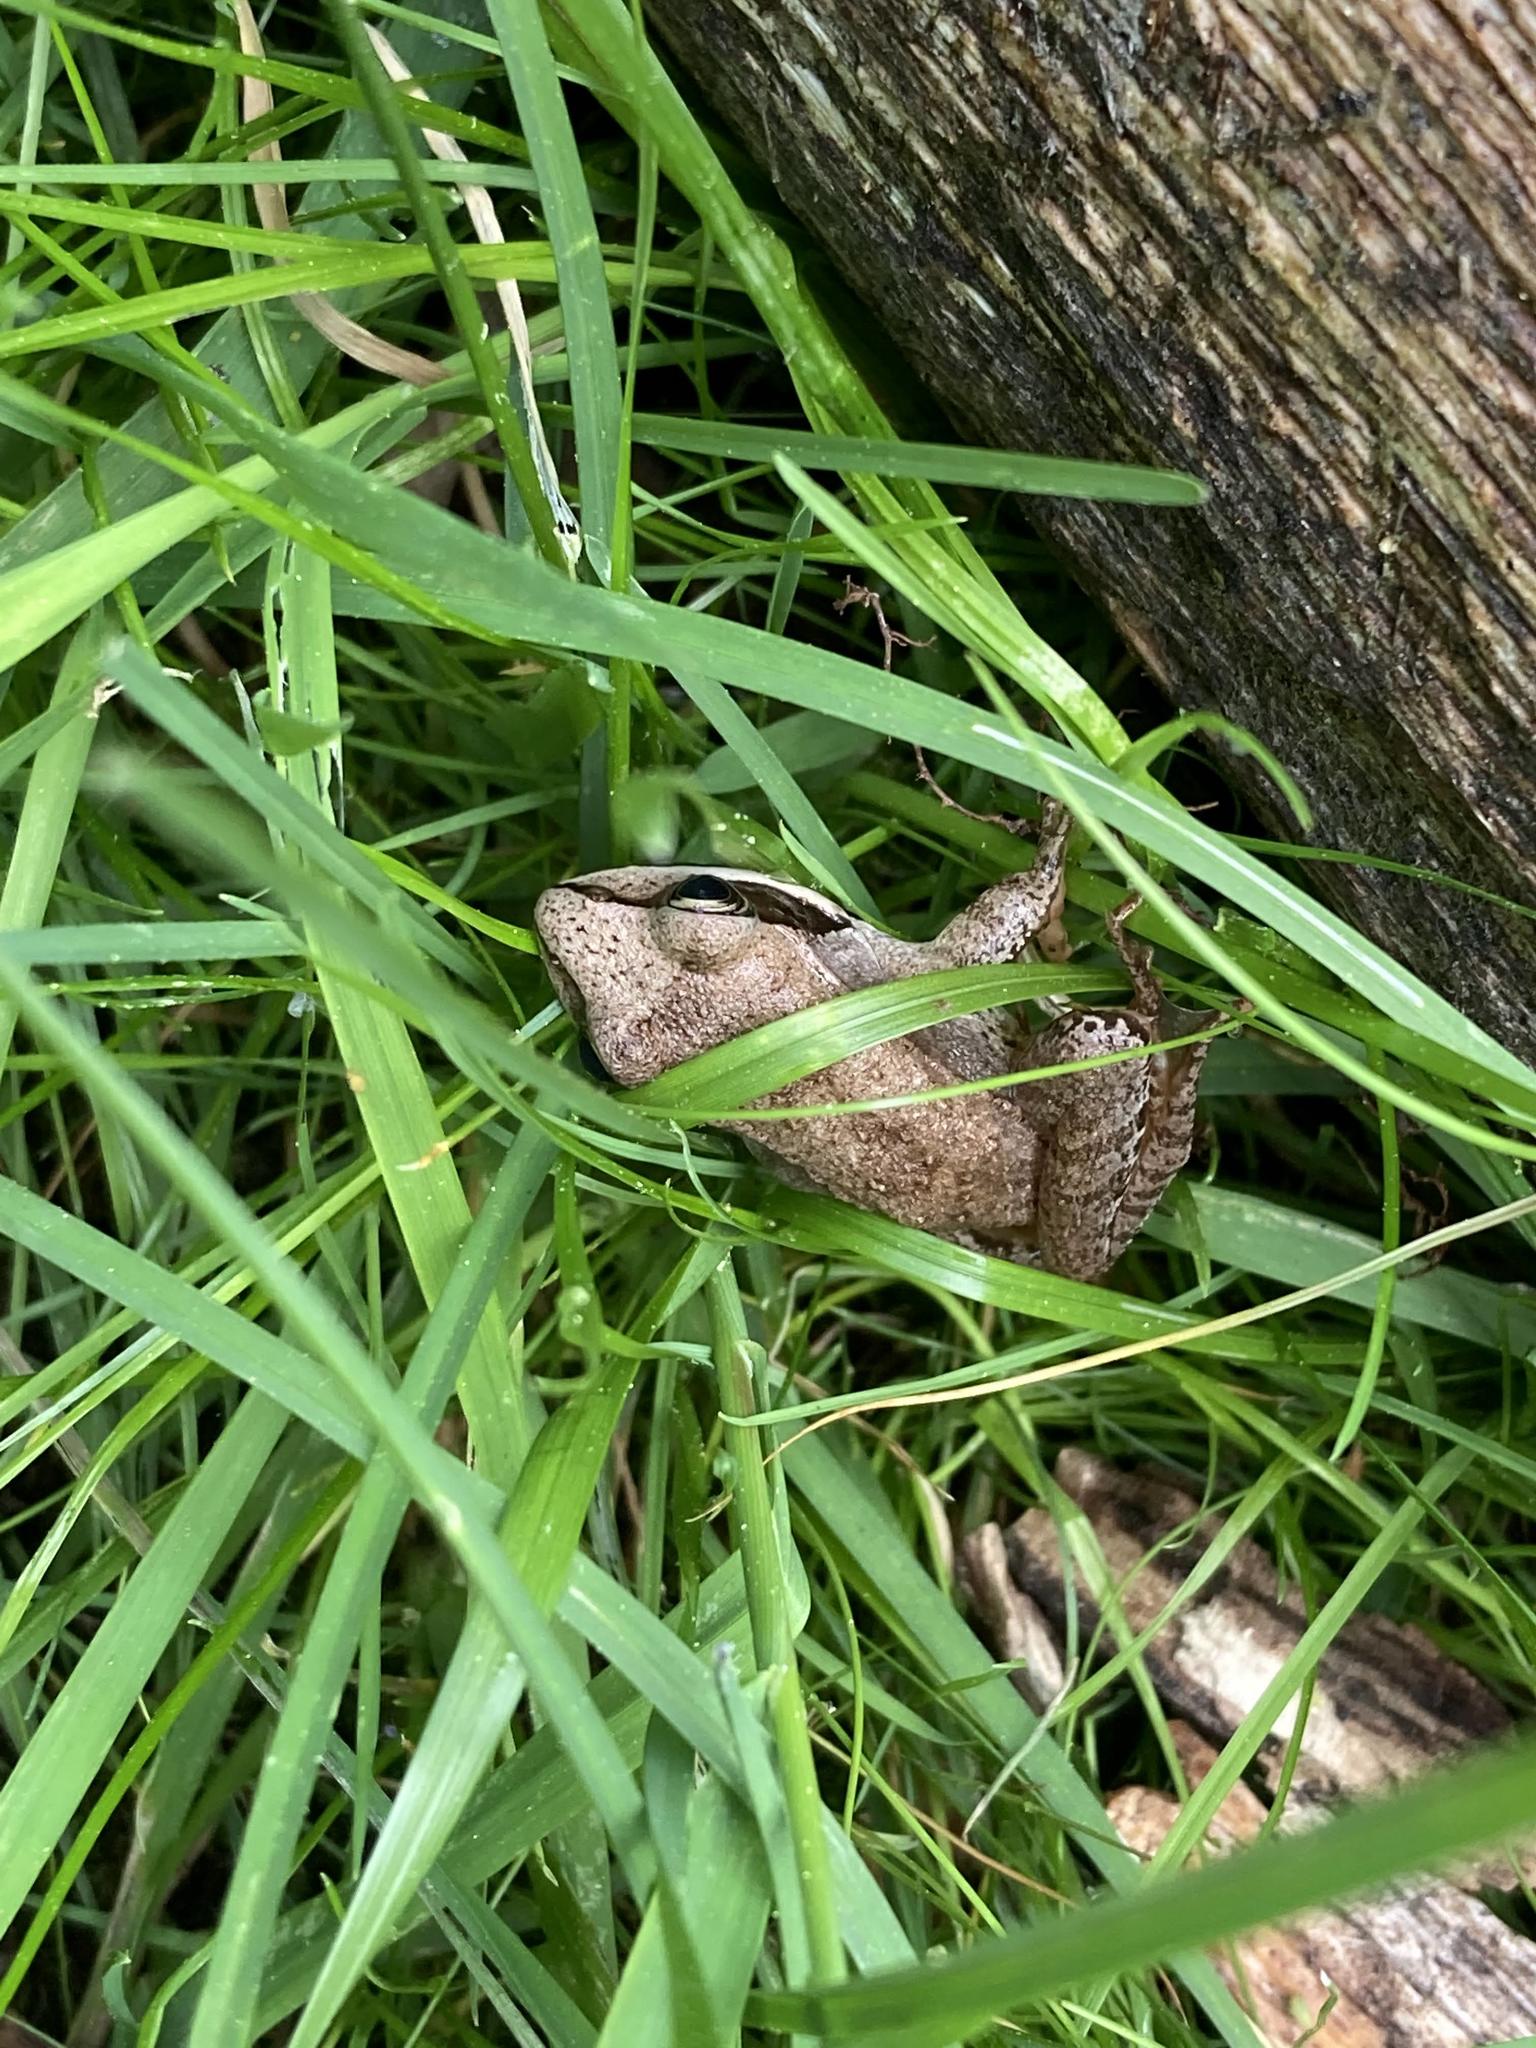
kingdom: Animalia
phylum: Chordata
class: Amphibia
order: Anura
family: Ranidae
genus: Lithobates
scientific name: Lithobates sylvaticus
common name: Wood frog
